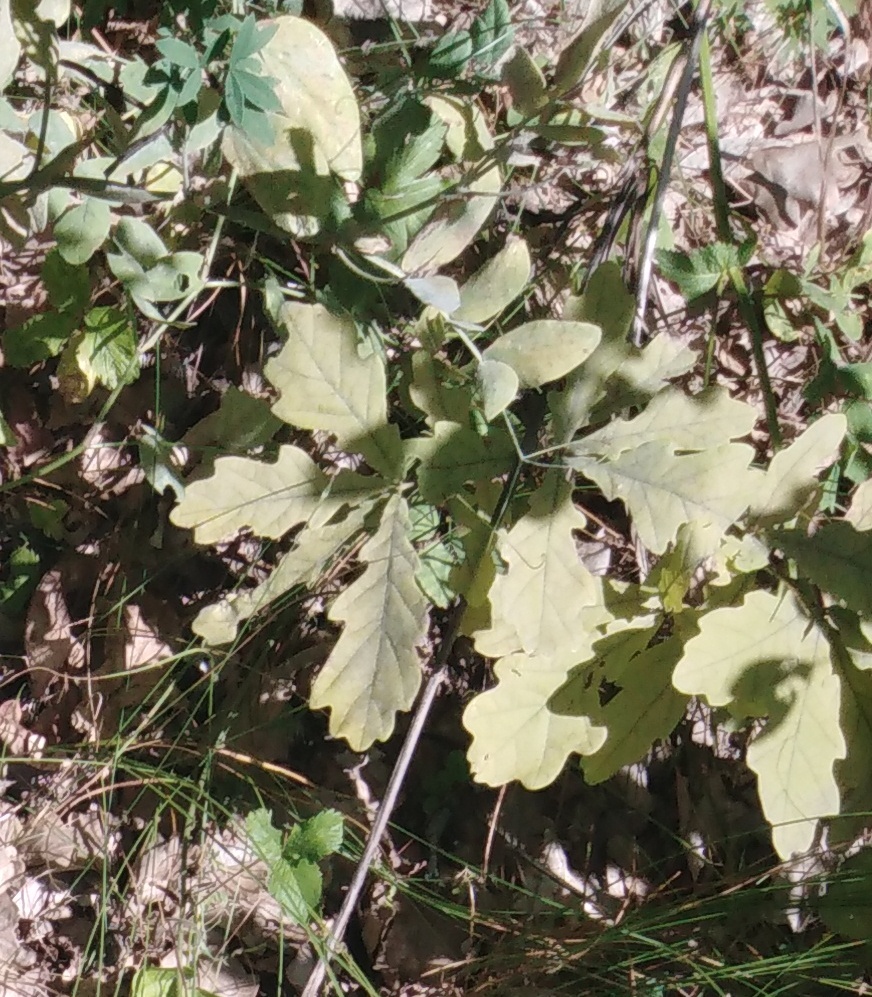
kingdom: Plantae
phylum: Tracheophyta
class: Magnoliopsida
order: Fagales
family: Fagaceae
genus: Quercus
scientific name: Quercus robur
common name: Pedunculate oak
